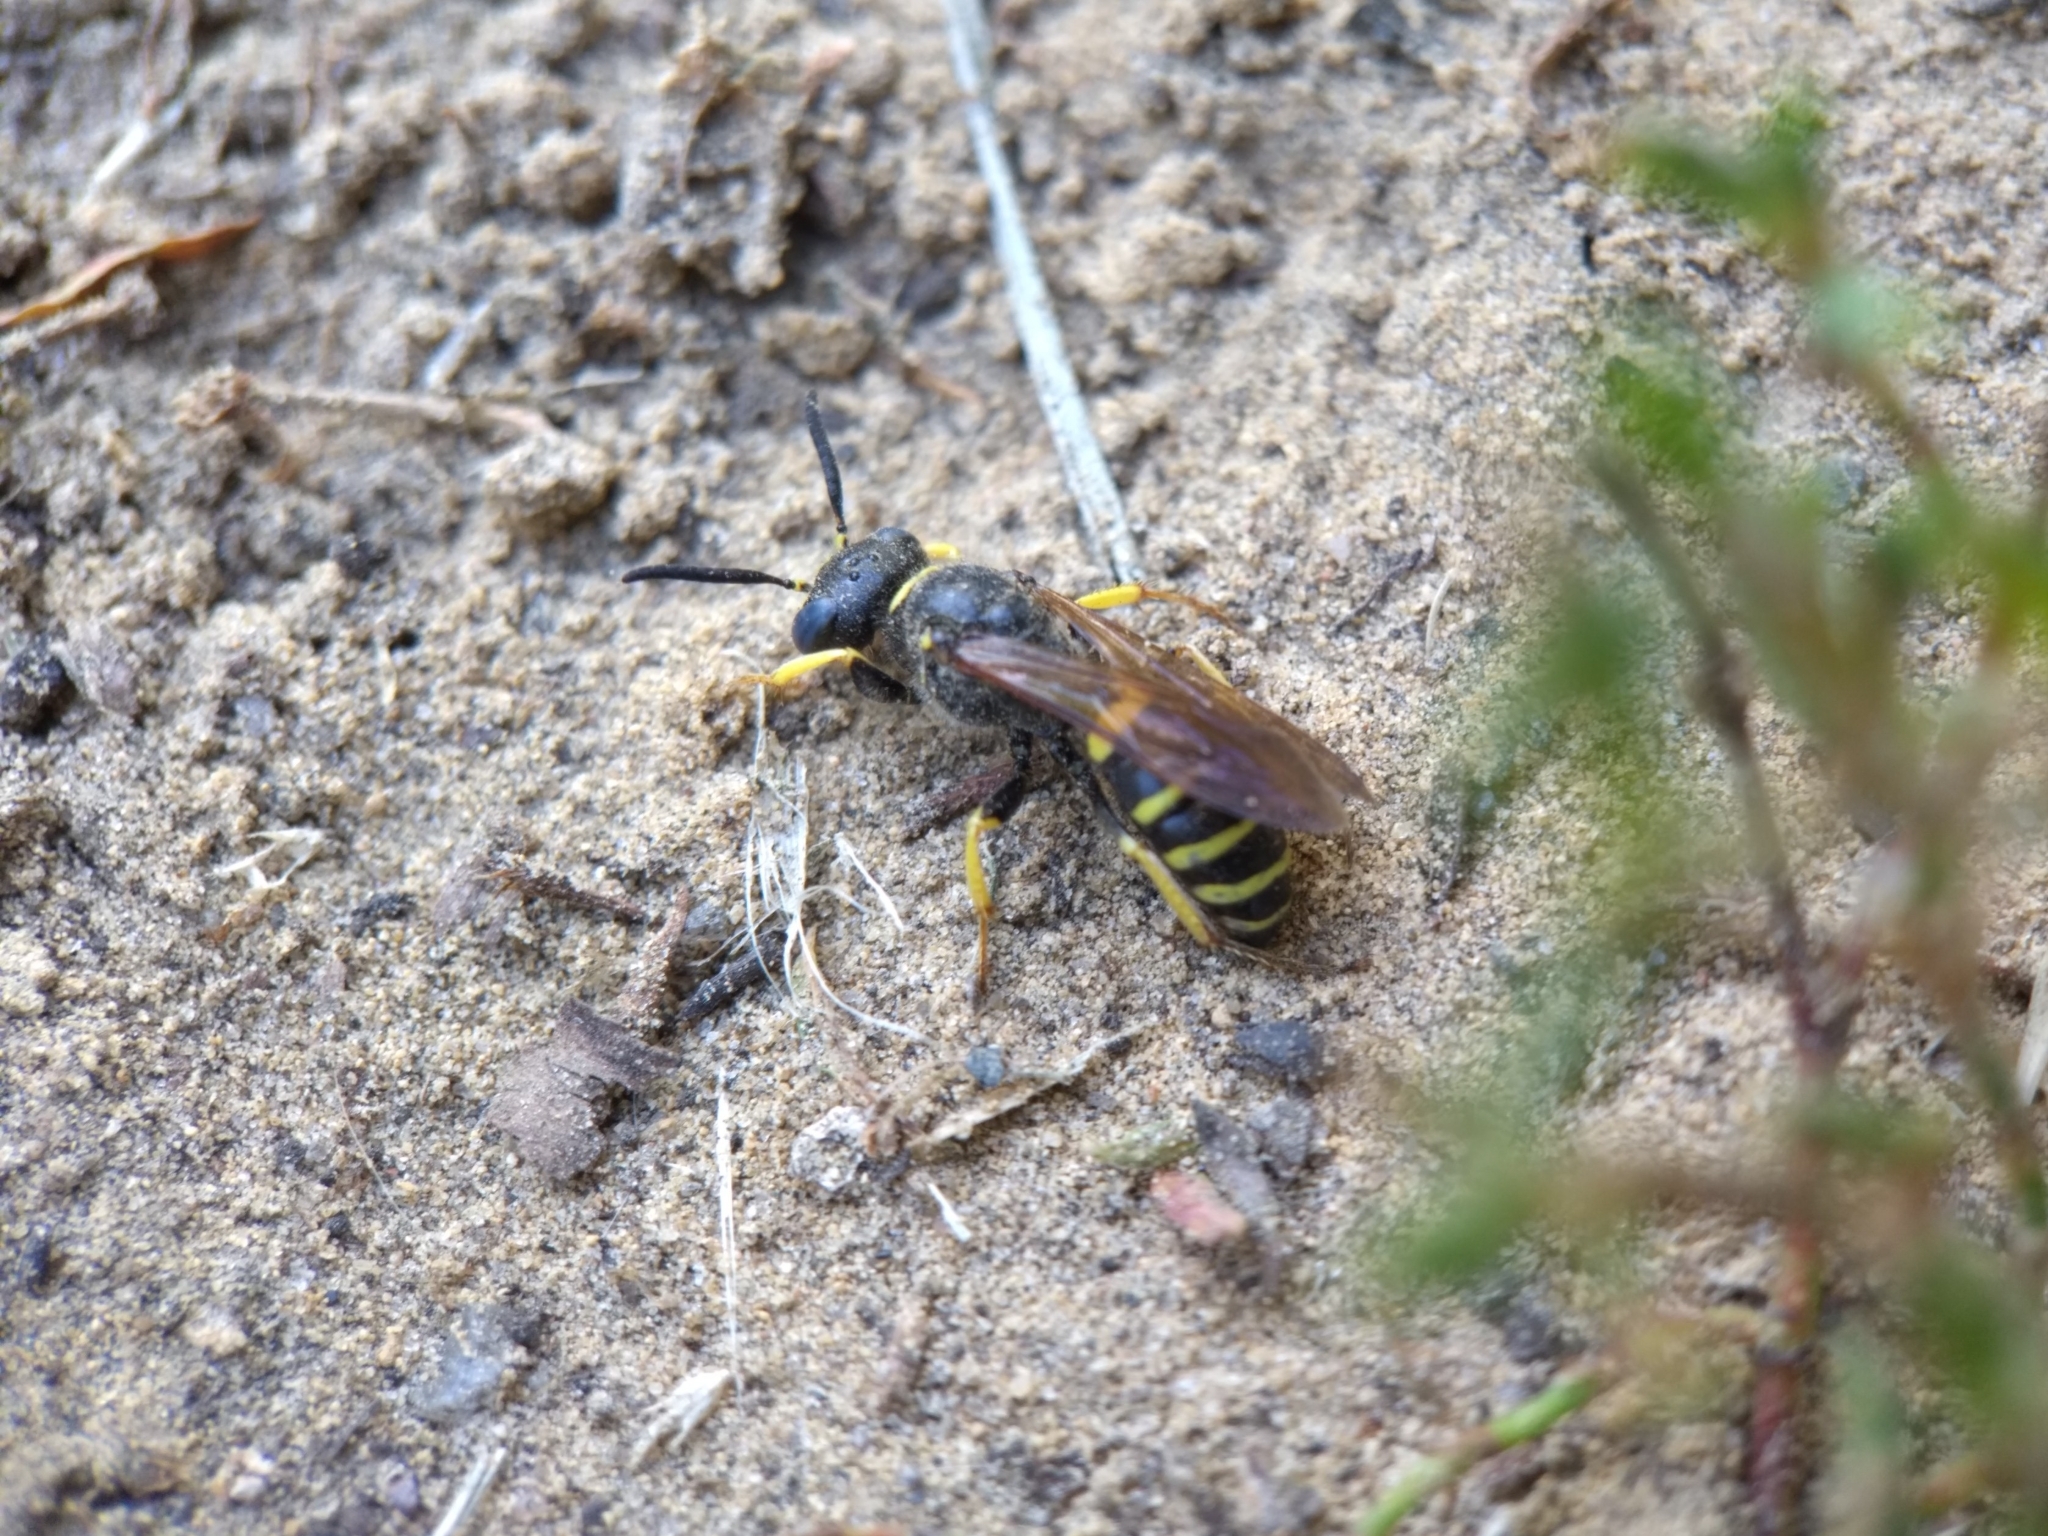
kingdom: Animalia
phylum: Arthropoda
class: Insecta
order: Hymenoptera
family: Crabronidae
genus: Philanthus
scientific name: Philanthus solivagus
